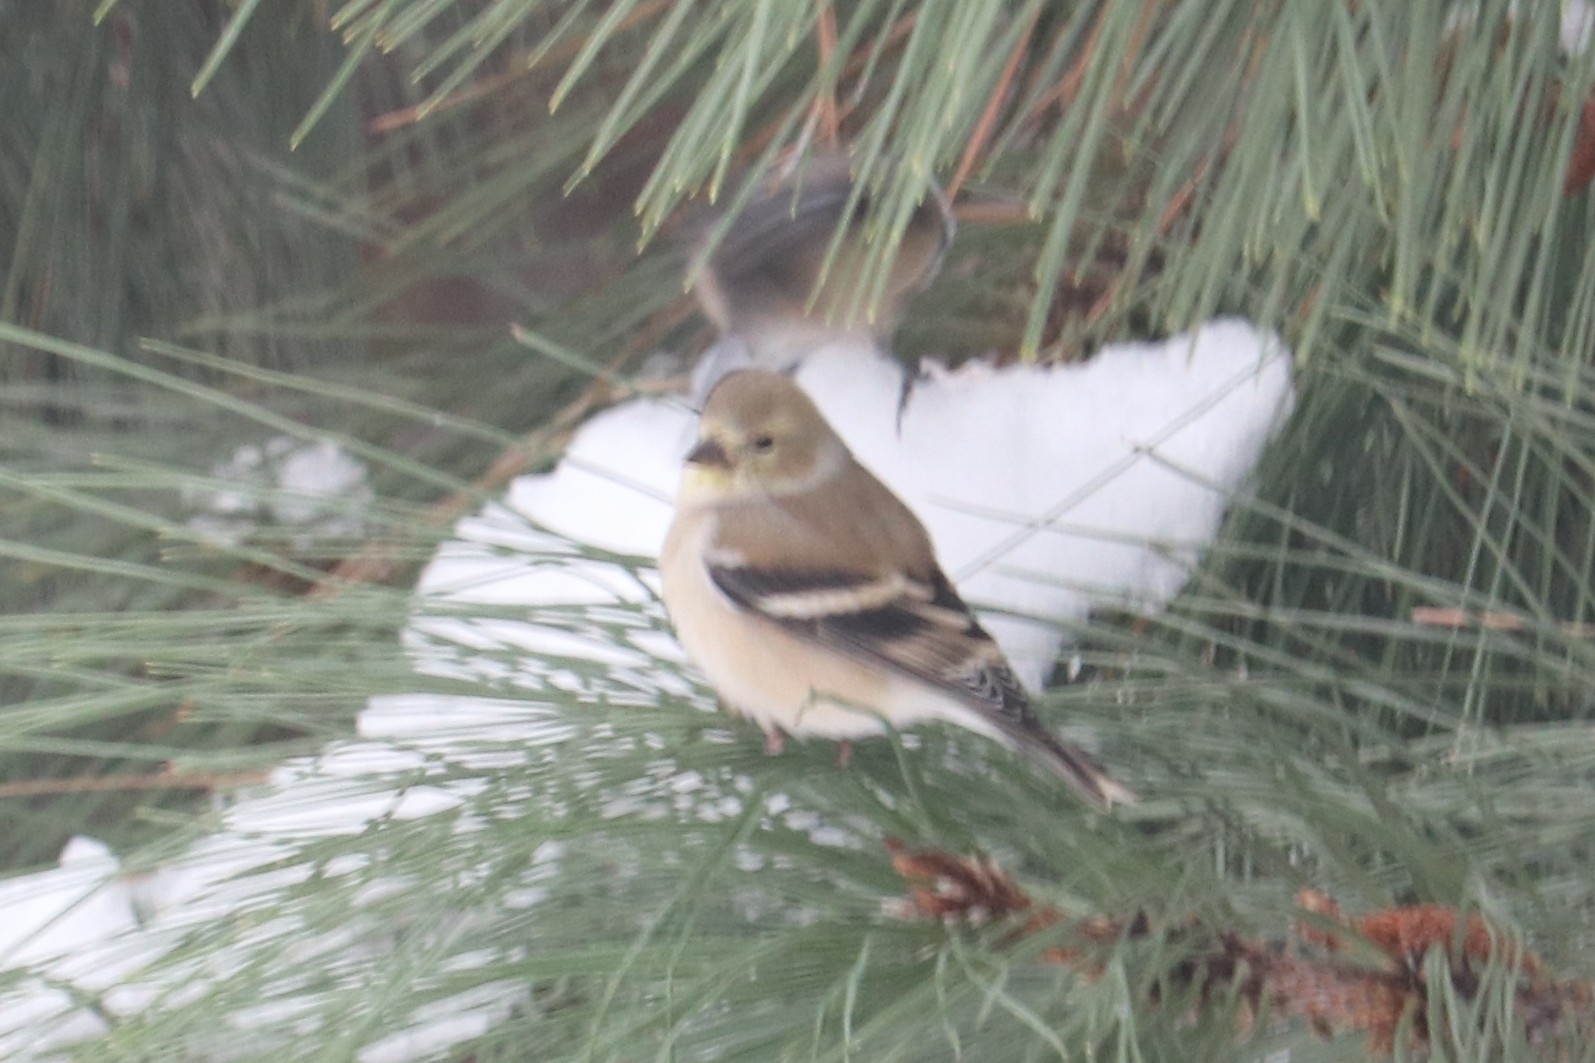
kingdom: Animalia
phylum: Chordata
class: Aves
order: Passeriformes
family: Fringillidae
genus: Spinus
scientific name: Spinus tristis
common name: American goldfinch
